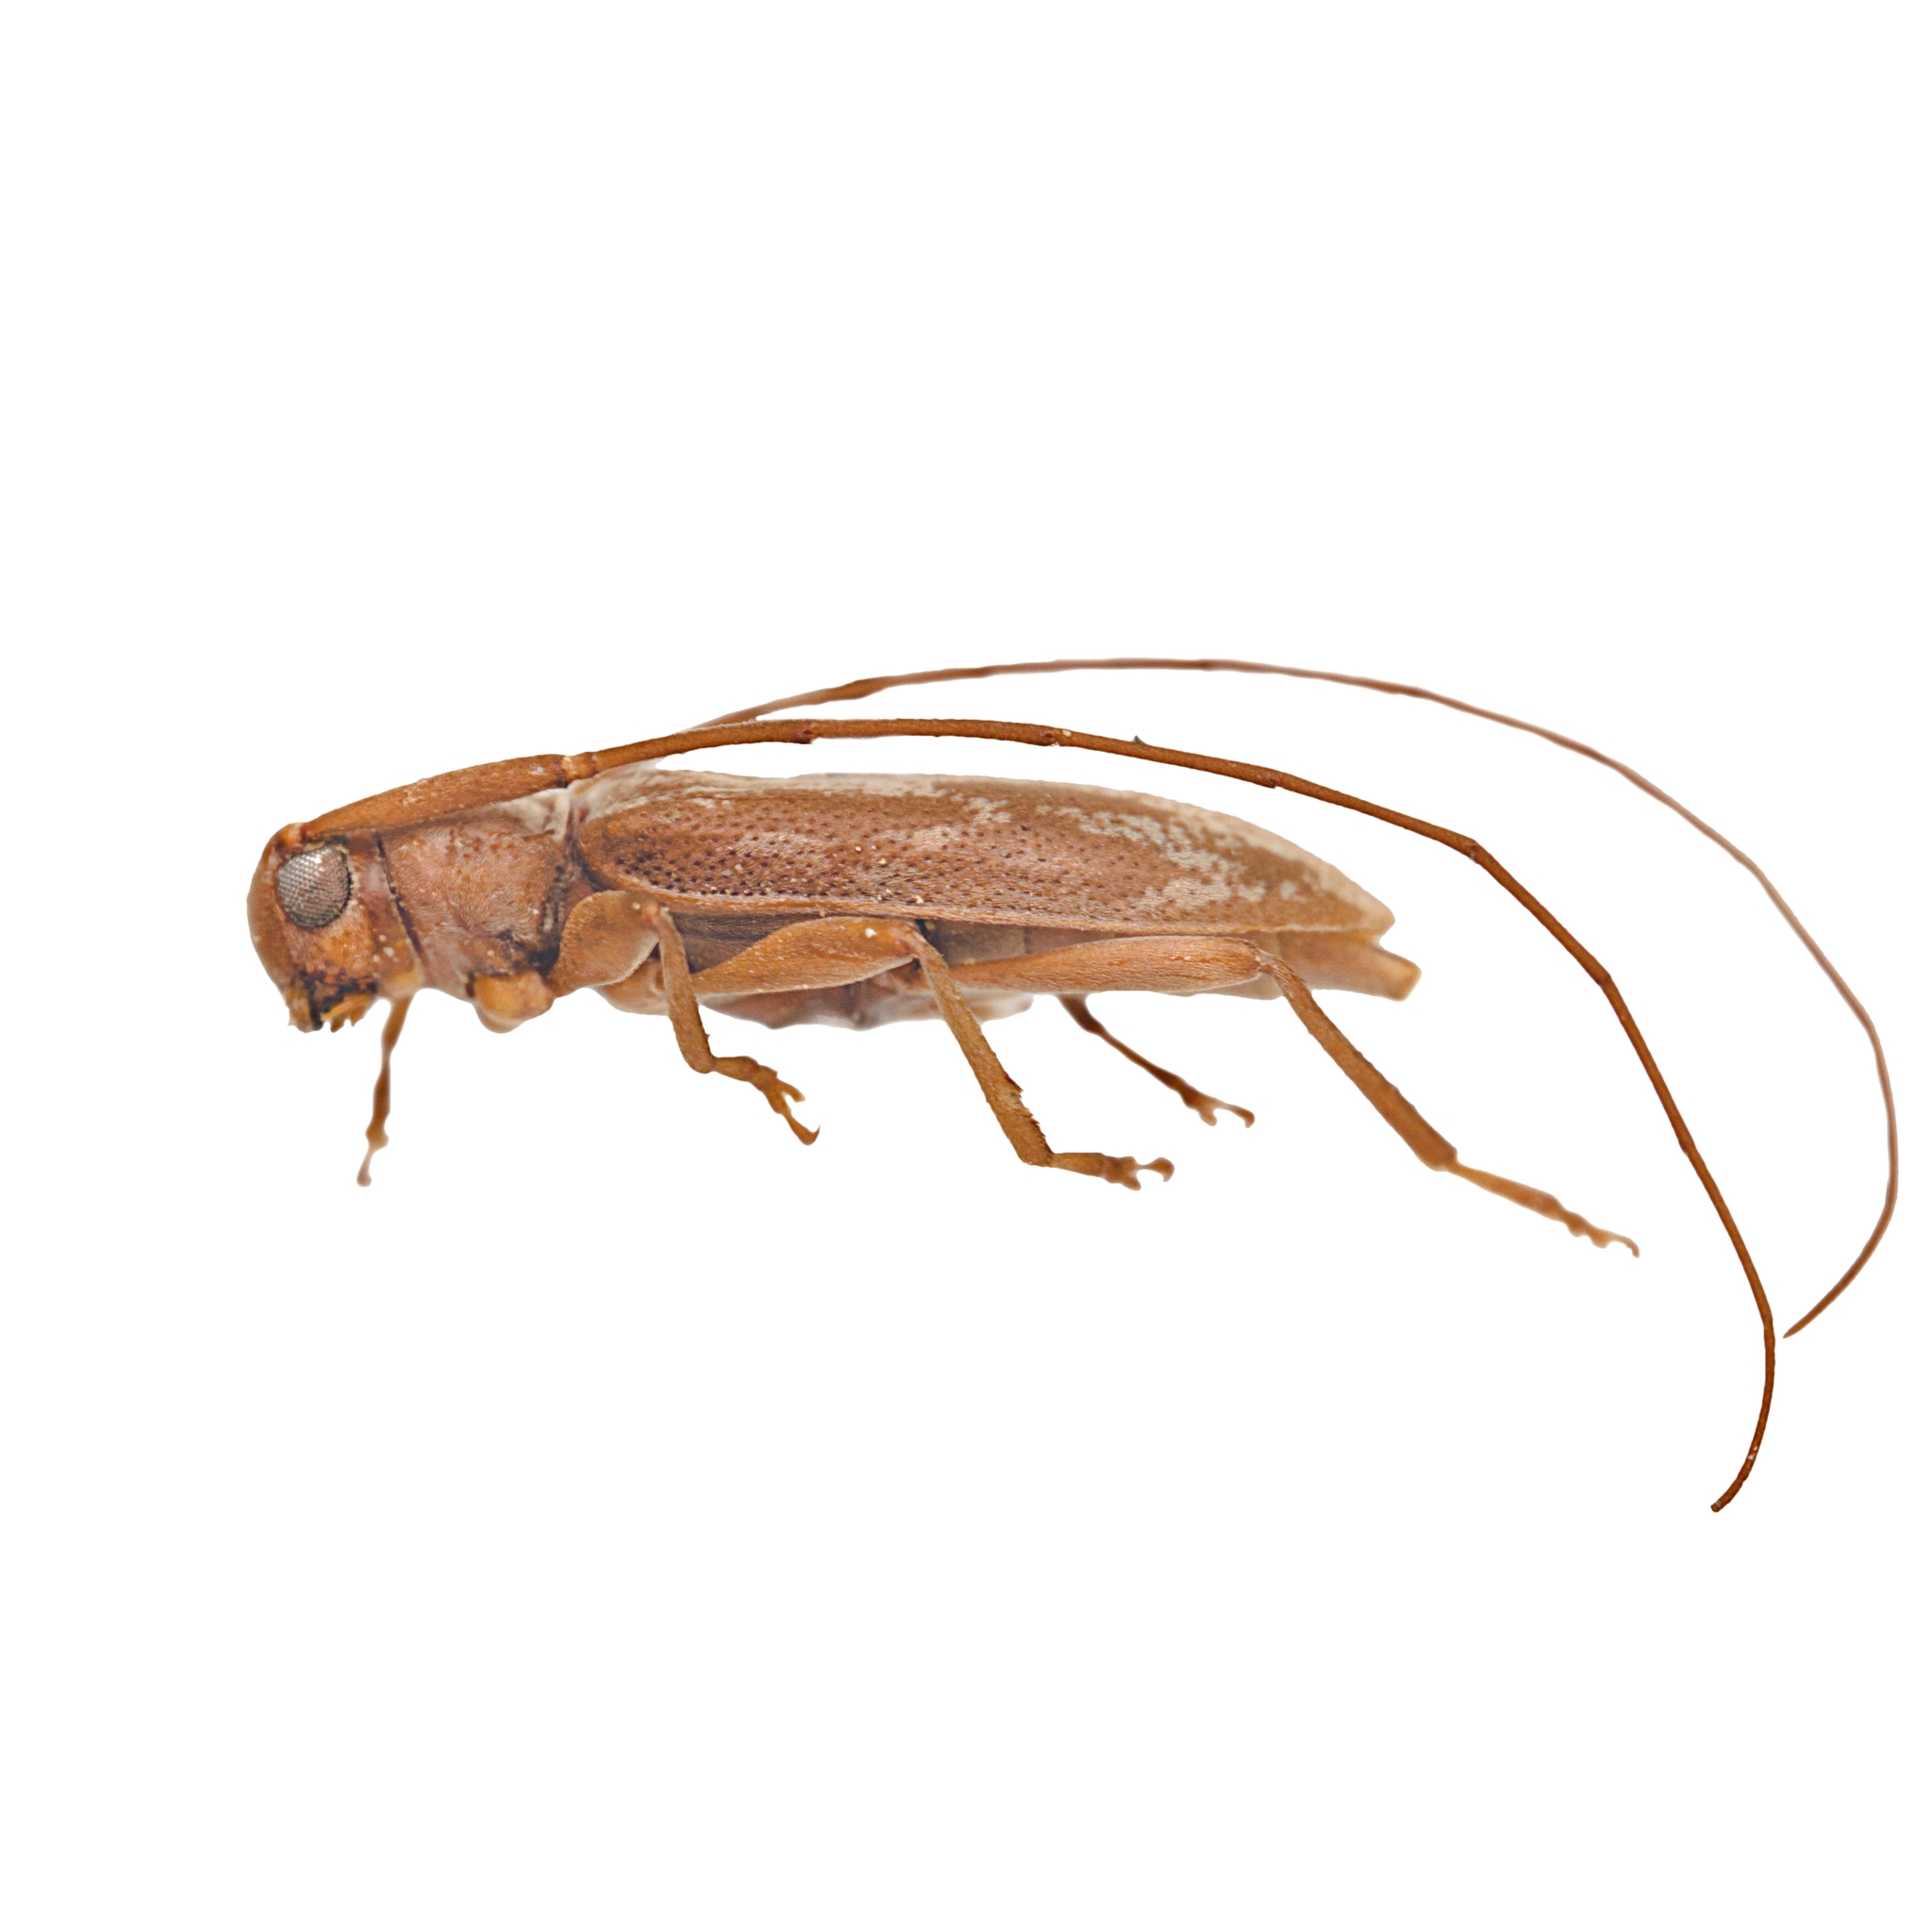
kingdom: Animalia
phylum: Arthropoda
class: Insecta
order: Coleoptera
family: Cerambycidae
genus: Lepturges
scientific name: Lepturges vogti
